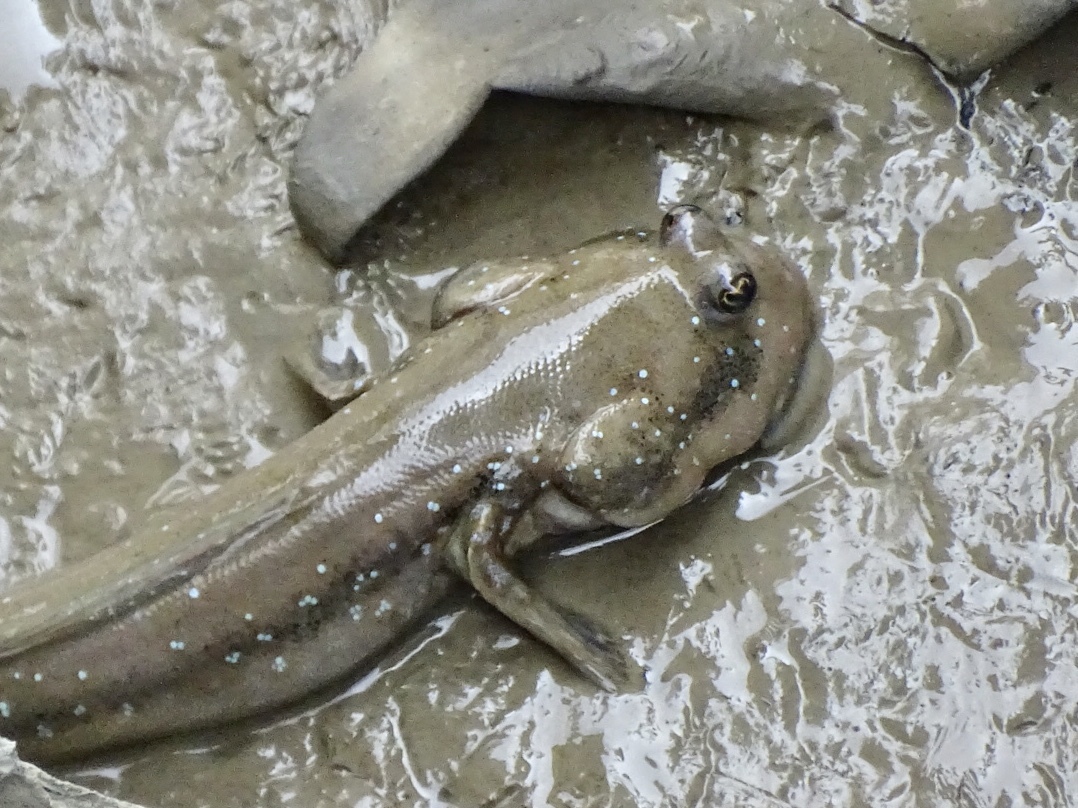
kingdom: Animalia
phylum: Chordata
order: Perciformes
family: Gobiidae
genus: Boleophthalmus
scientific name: Boleophthalmus pectinirostris
